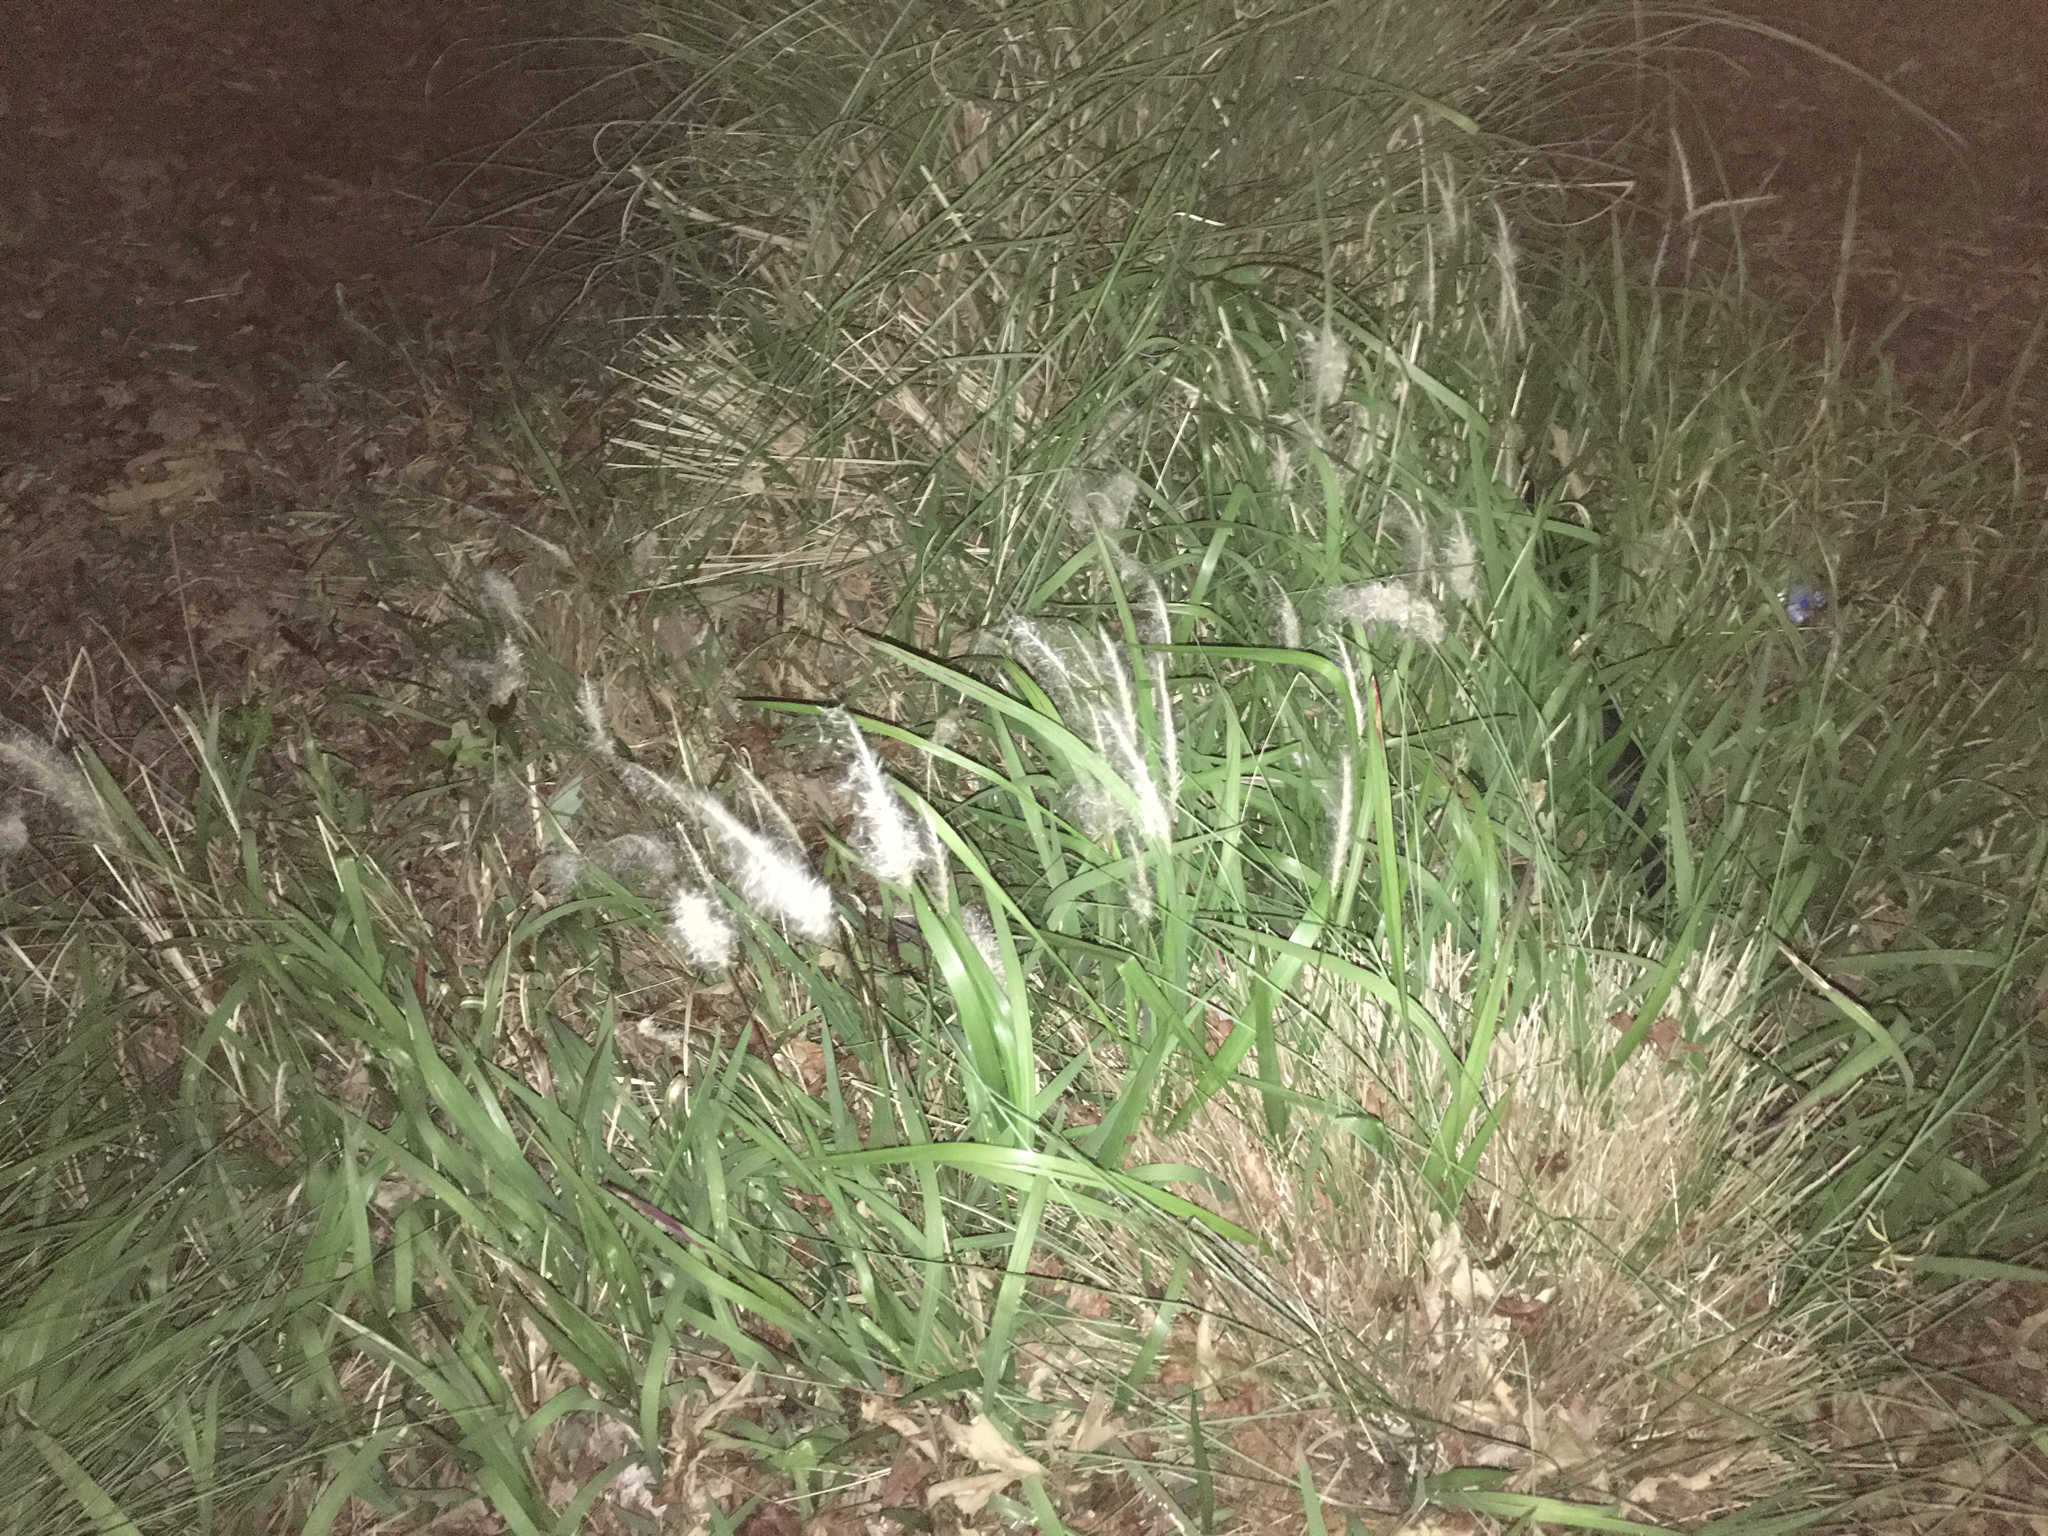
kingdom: Plantae
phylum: Tracheophyta
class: Liliopsida
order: Poales
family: Poaceae
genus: Imperata
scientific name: Imperata cylindrica
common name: Cogongrass
